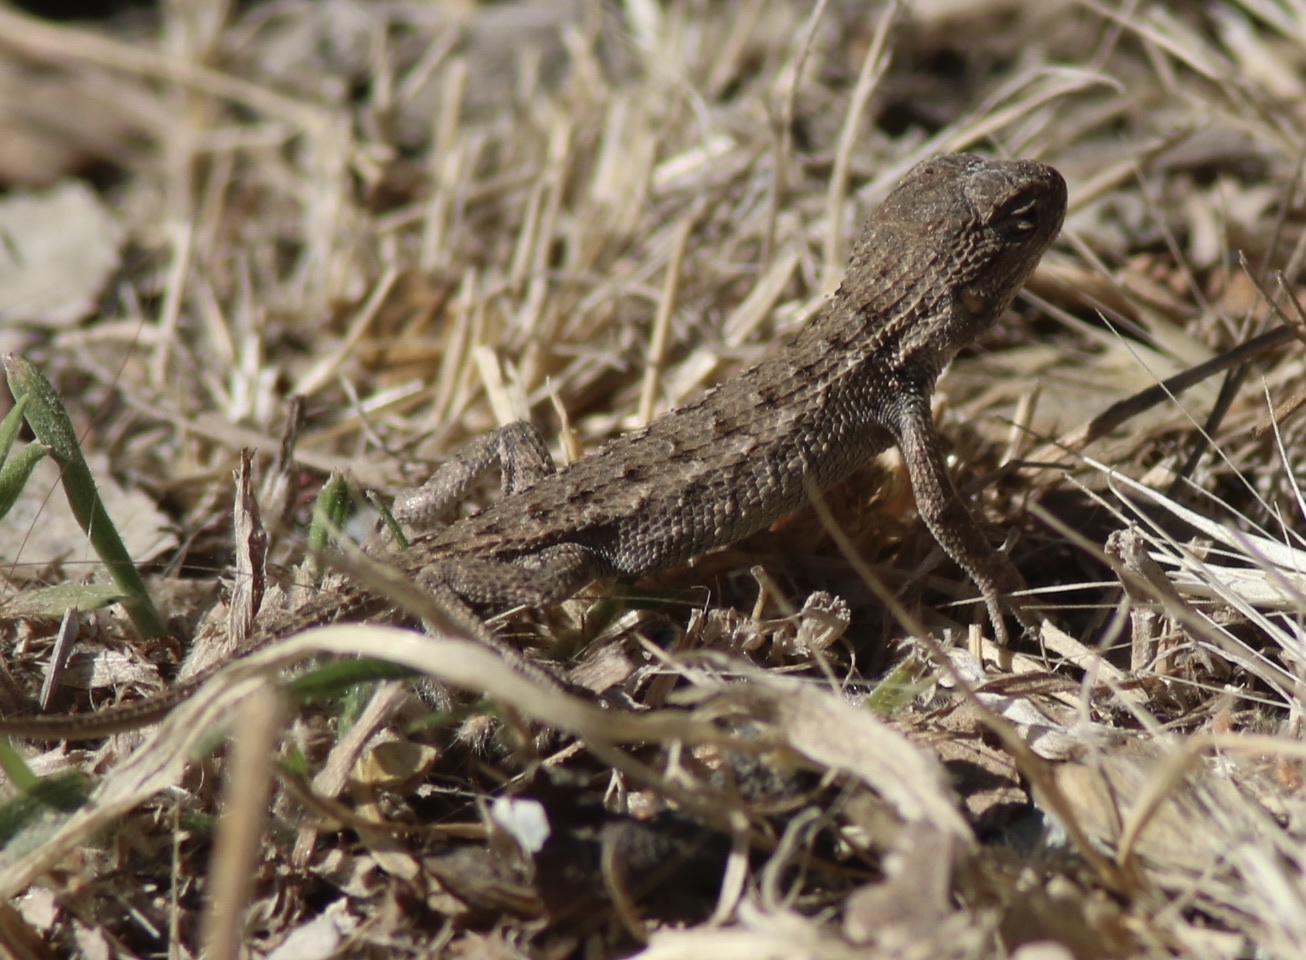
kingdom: Animalia
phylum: Chordata
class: Squamata
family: Phrynosomatidae
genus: Sceloporus
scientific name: Sceloporus occidentalis
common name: Western fence lizard
